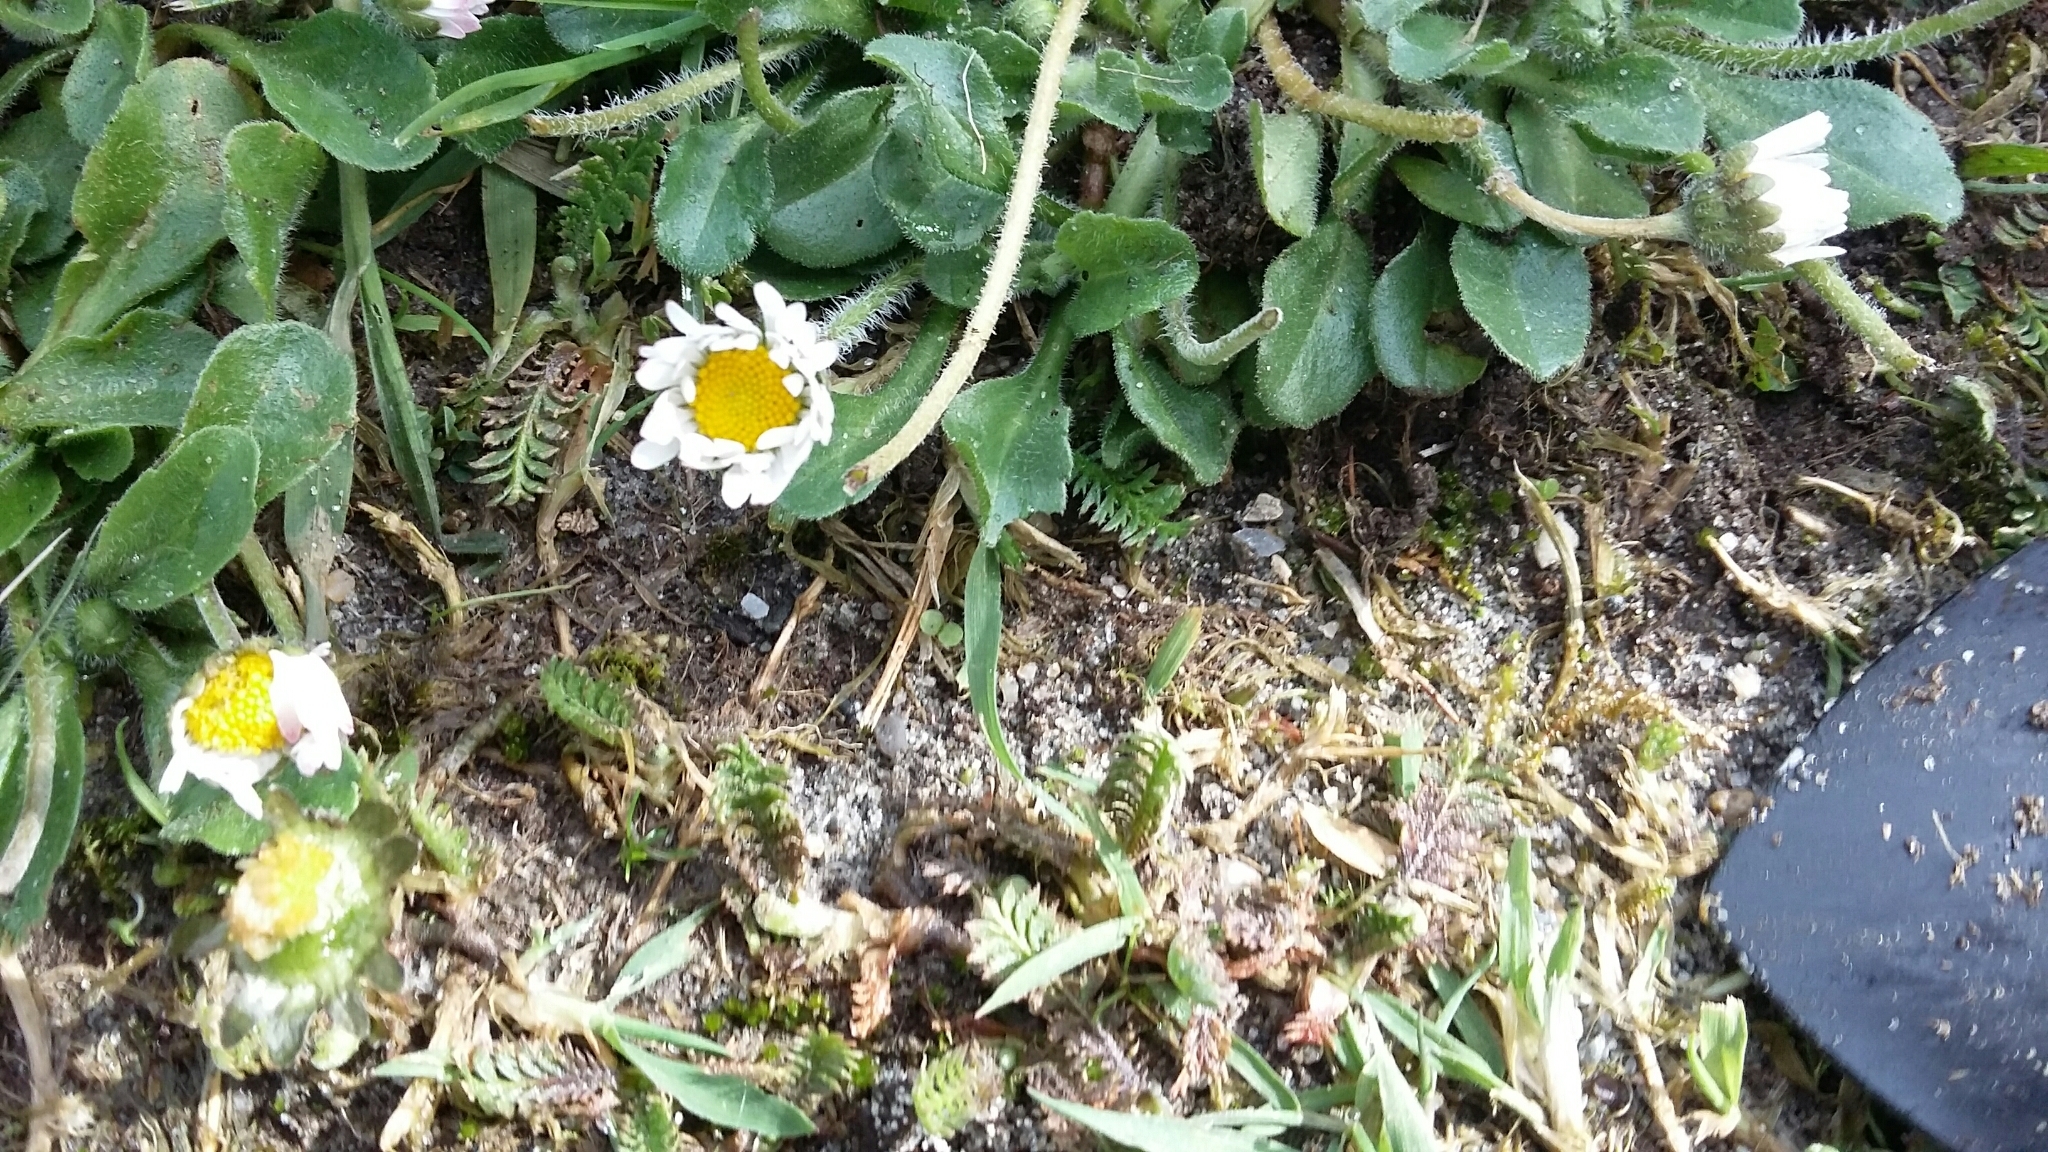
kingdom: Plantae
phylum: Tracheophyta
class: Magnoliopsida
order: Asterales
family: Asteraceae
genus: Bellis
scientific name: Bellis perennis
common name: Lawndaisy
